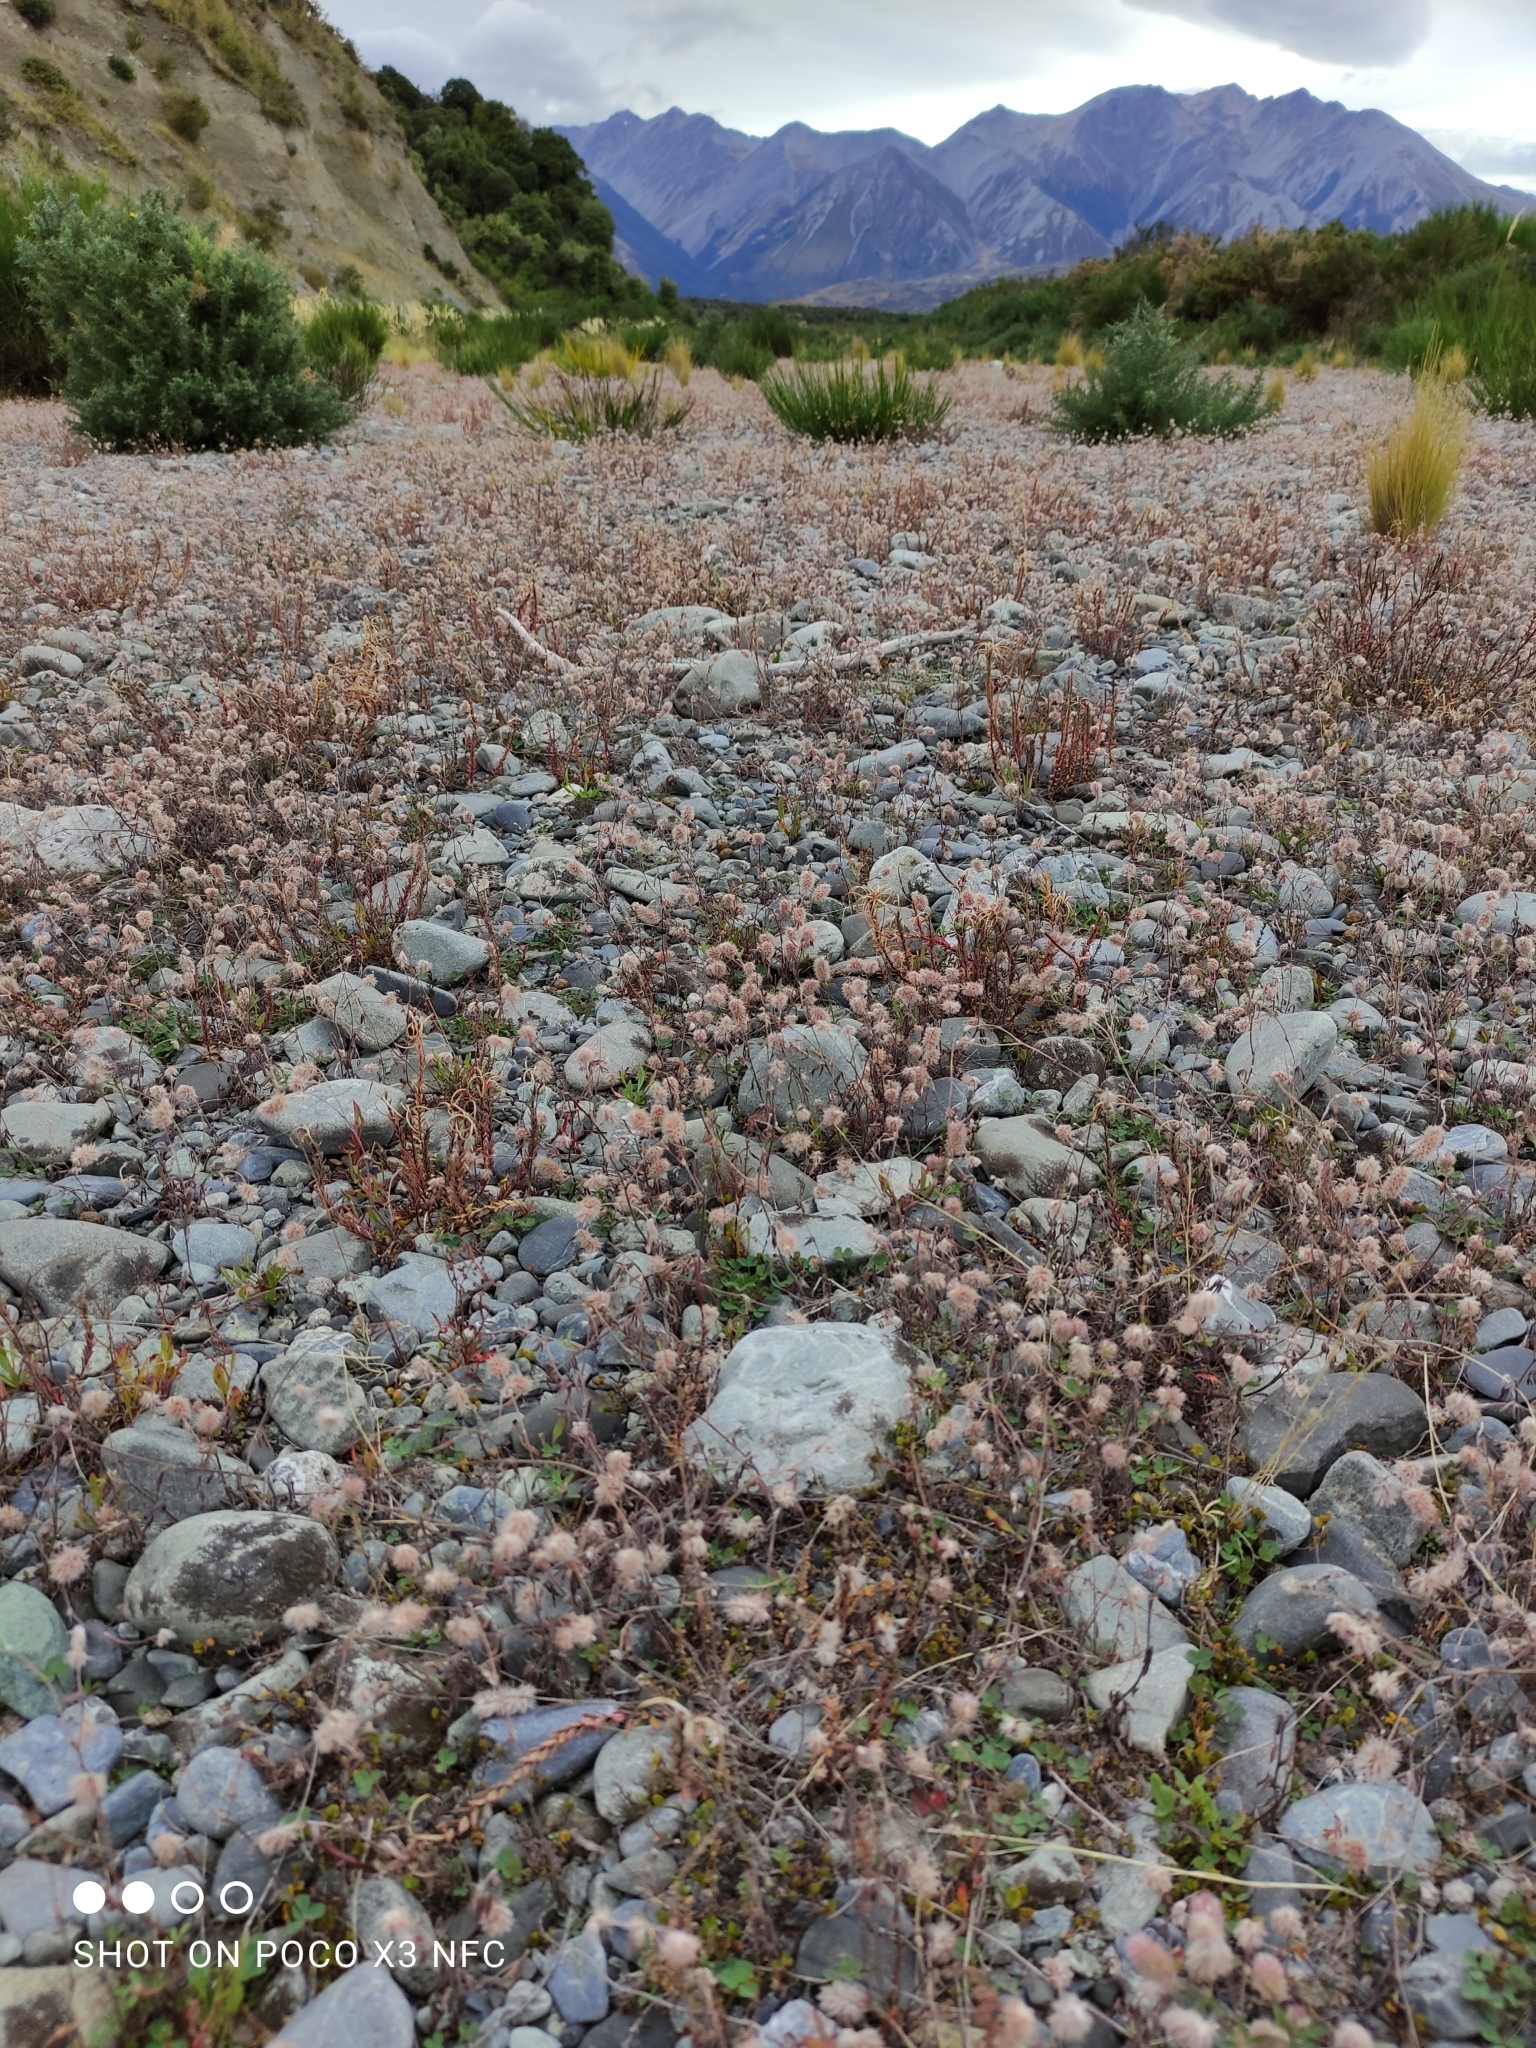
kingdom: Plantae
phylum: Tracheophyta
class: Magnoliopsida
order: Fabales
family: Fabaceae
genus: Trifolium
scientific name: Trifolium arvense
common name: Hare's-foot clover
